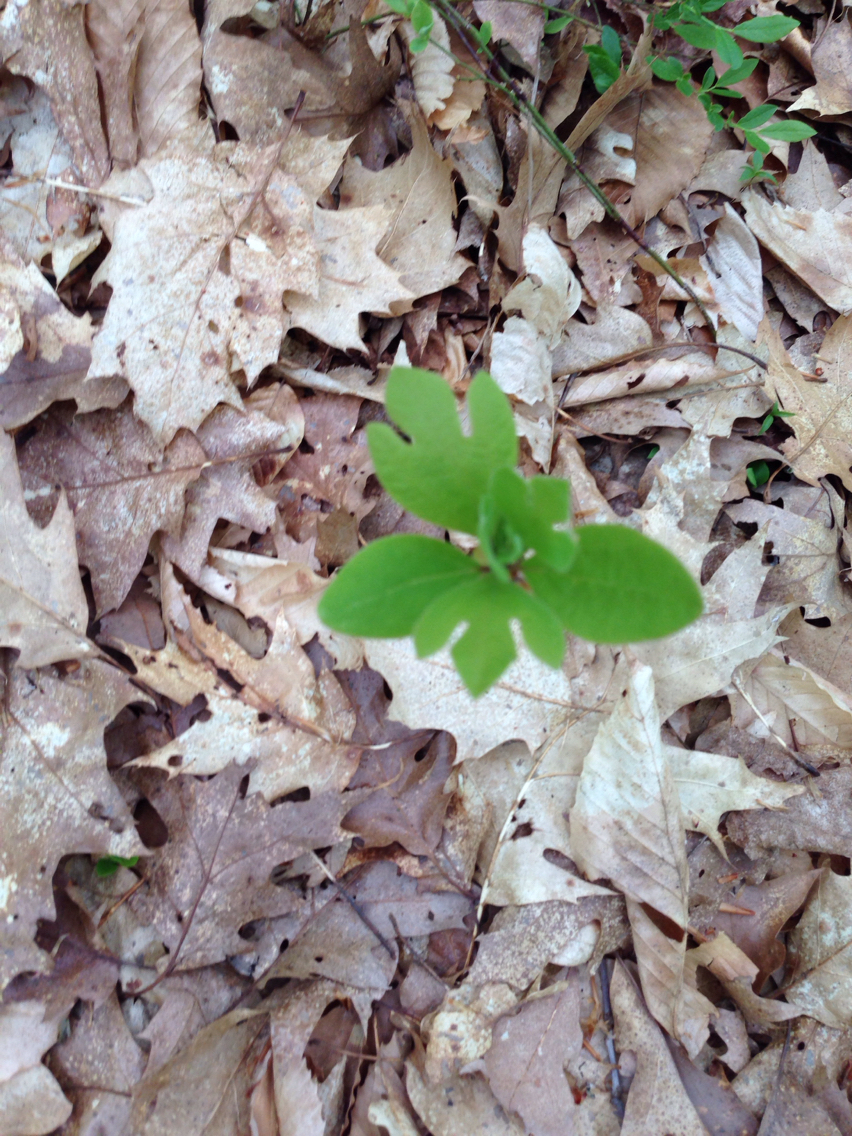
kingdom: Plantae
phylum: Tracheophyta
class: Magnoliopsida
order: Laurales
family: Lauraceae
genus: Sassafras
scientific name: Sassafras albidum
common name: Sassafras
